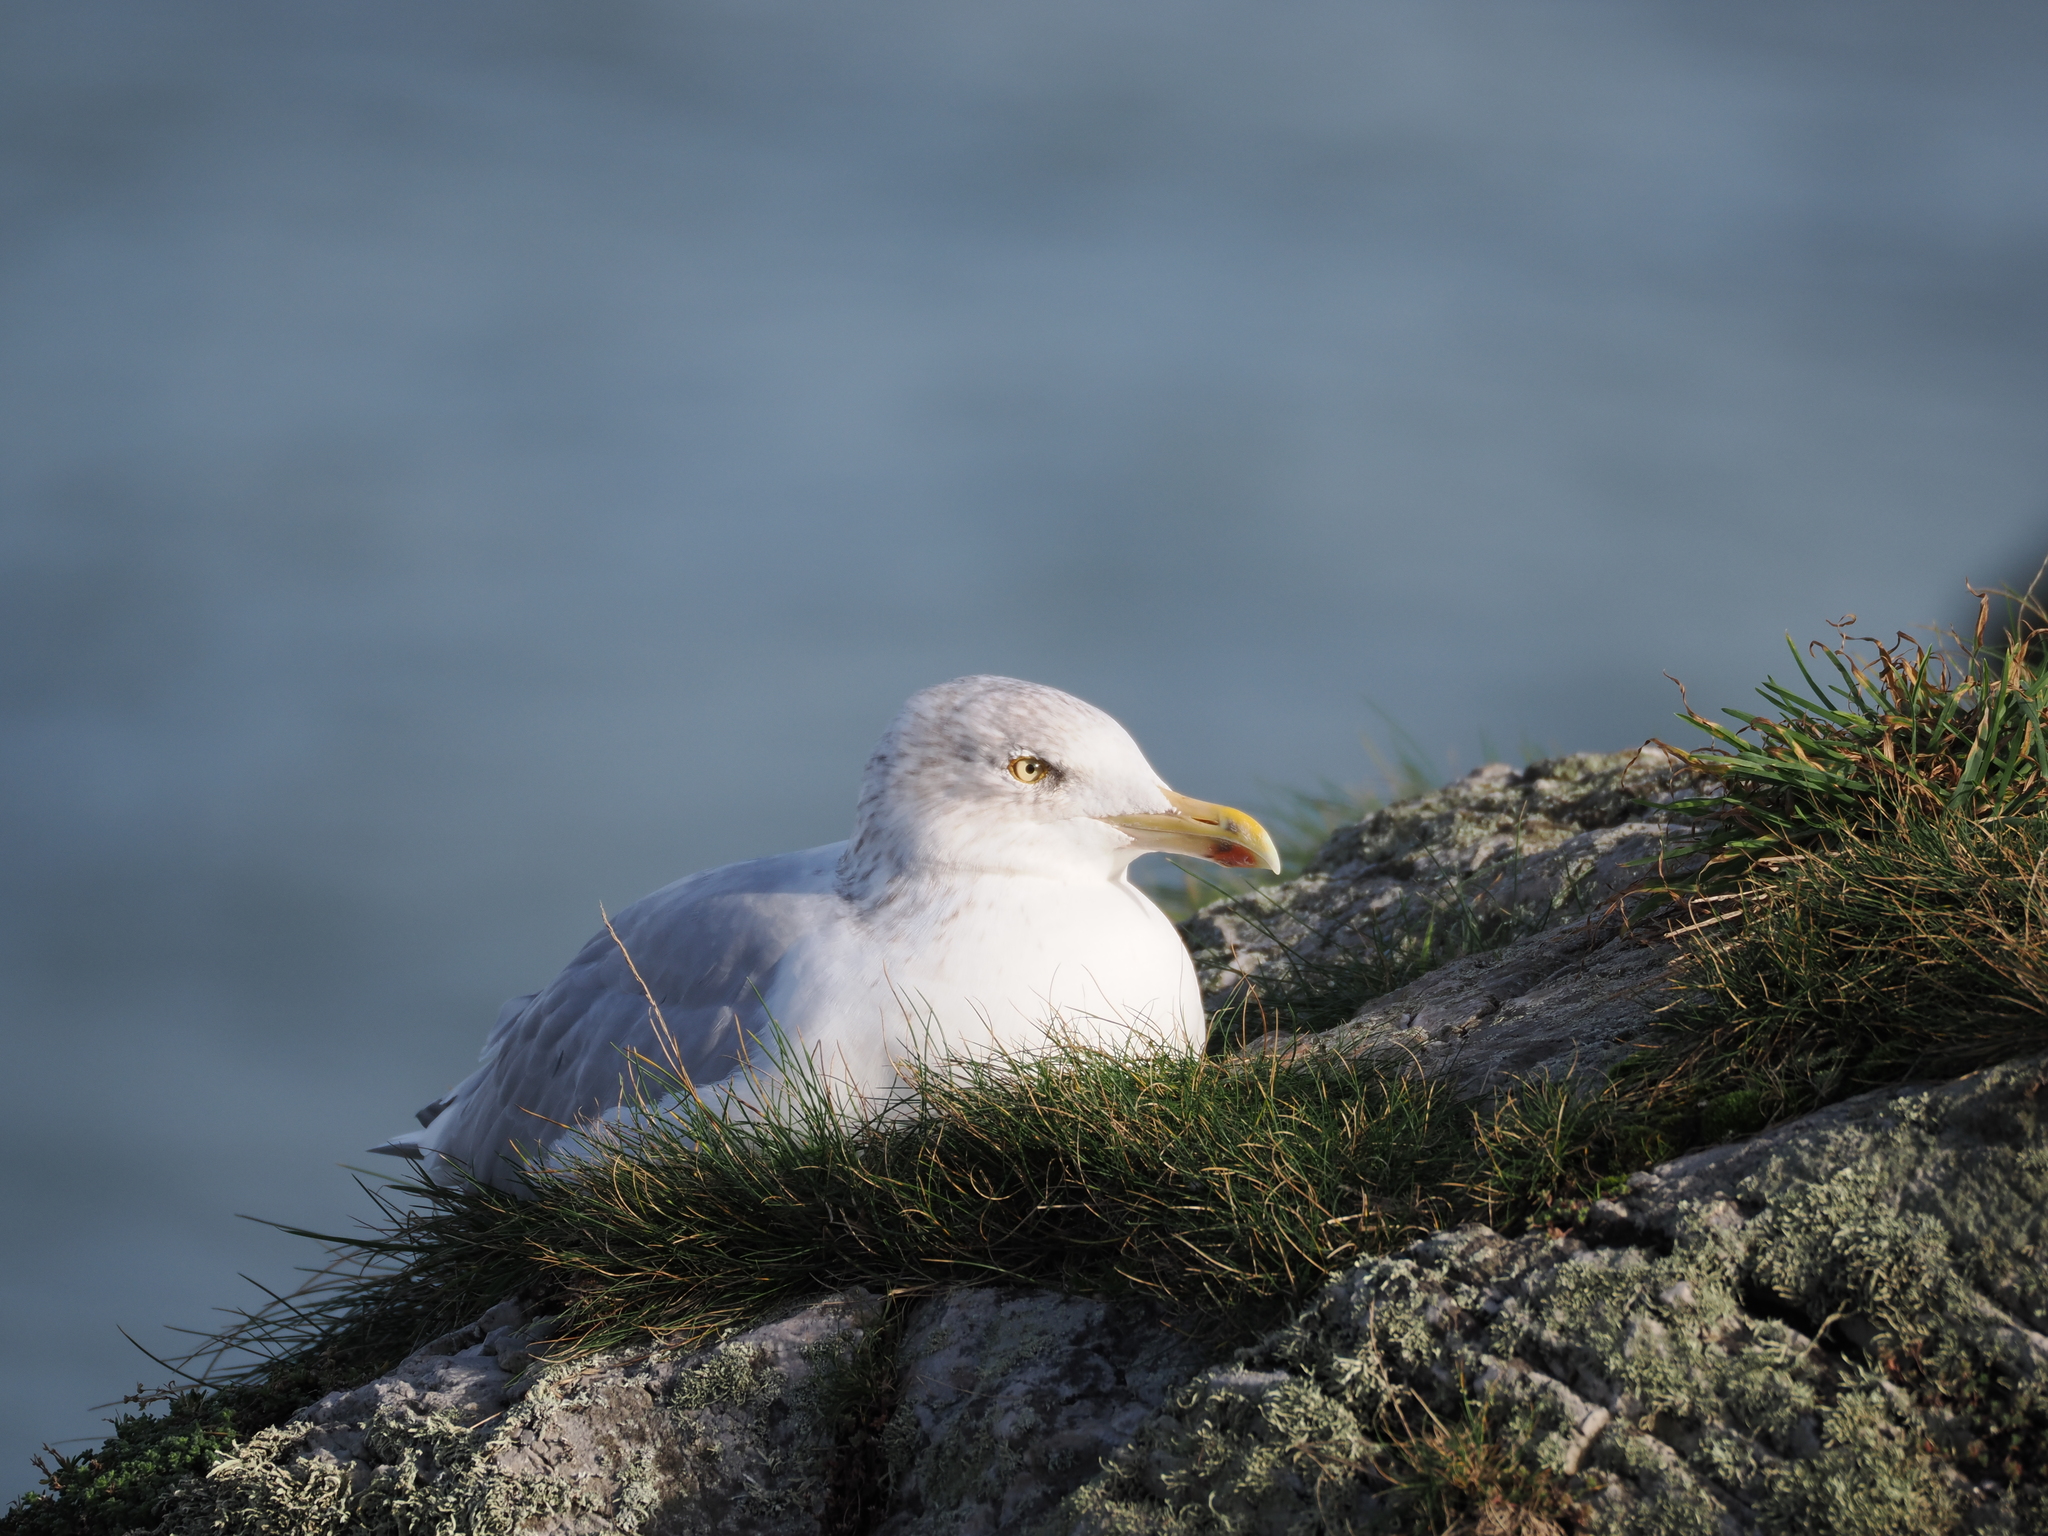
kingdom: Animalia
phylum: Chordata
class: Aves
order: Charadriiformes
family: Laridae
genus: Larus
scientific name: Larus argentatus
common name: Herring gull
